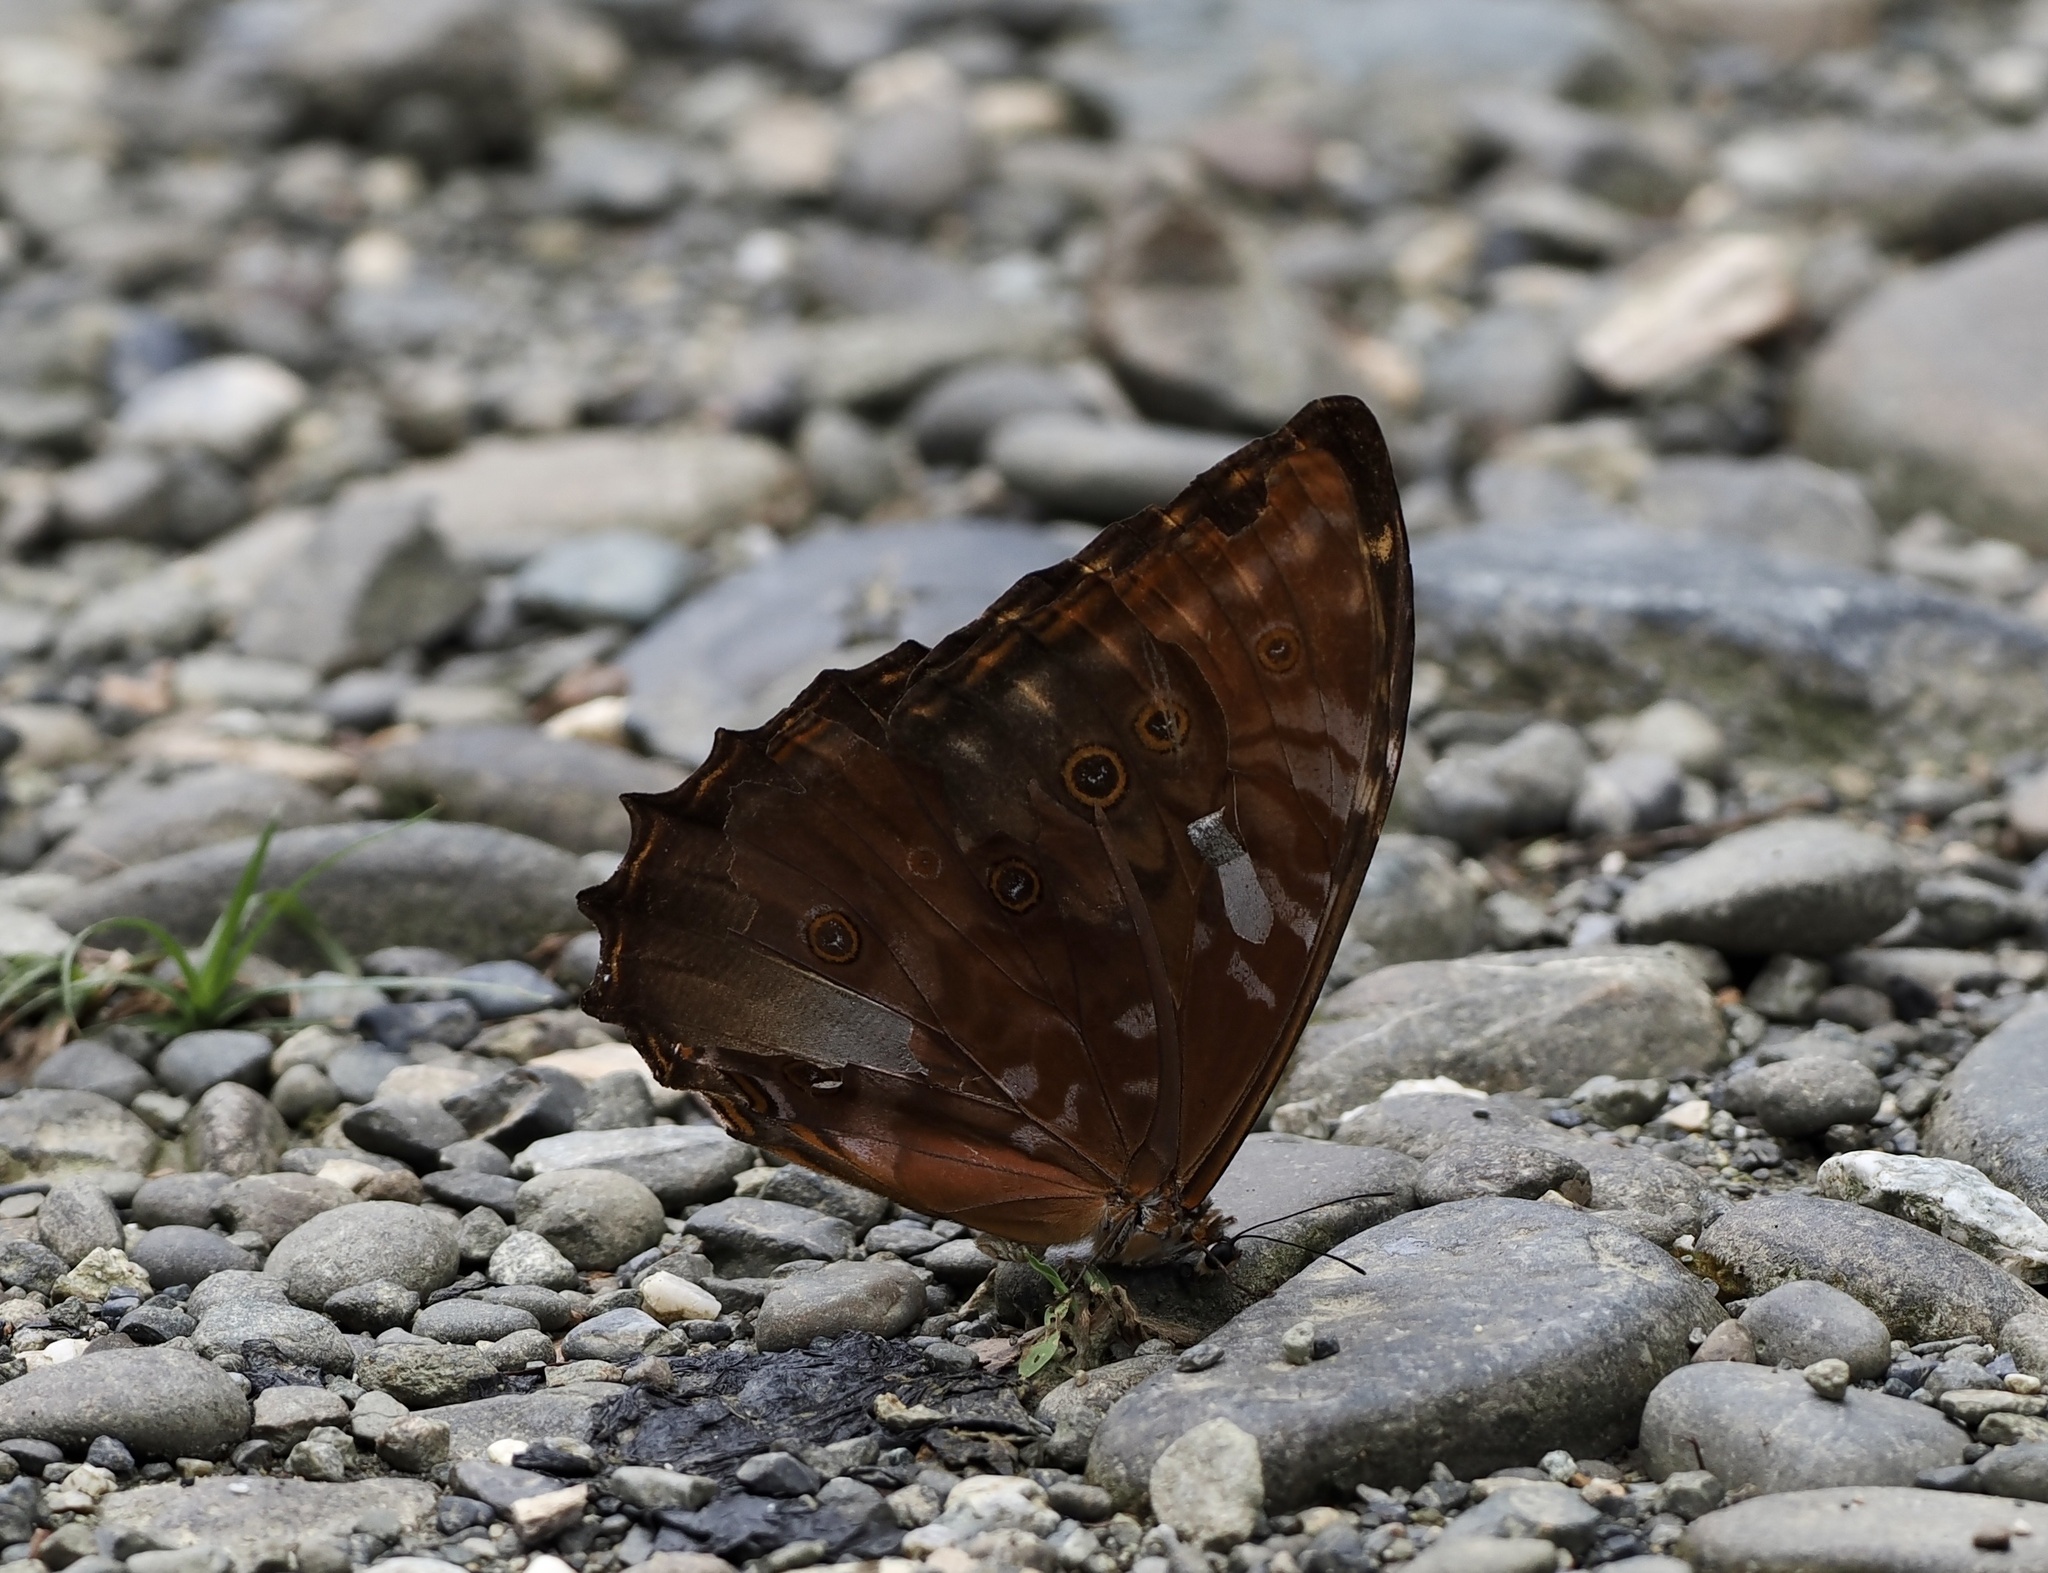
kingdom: Animalia
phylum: Arthropoda
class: Insecta
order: Lepidoptera
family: Nymphalidae
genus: Morpho
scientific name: Morpho theseus
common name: Stub-tailed morpho
